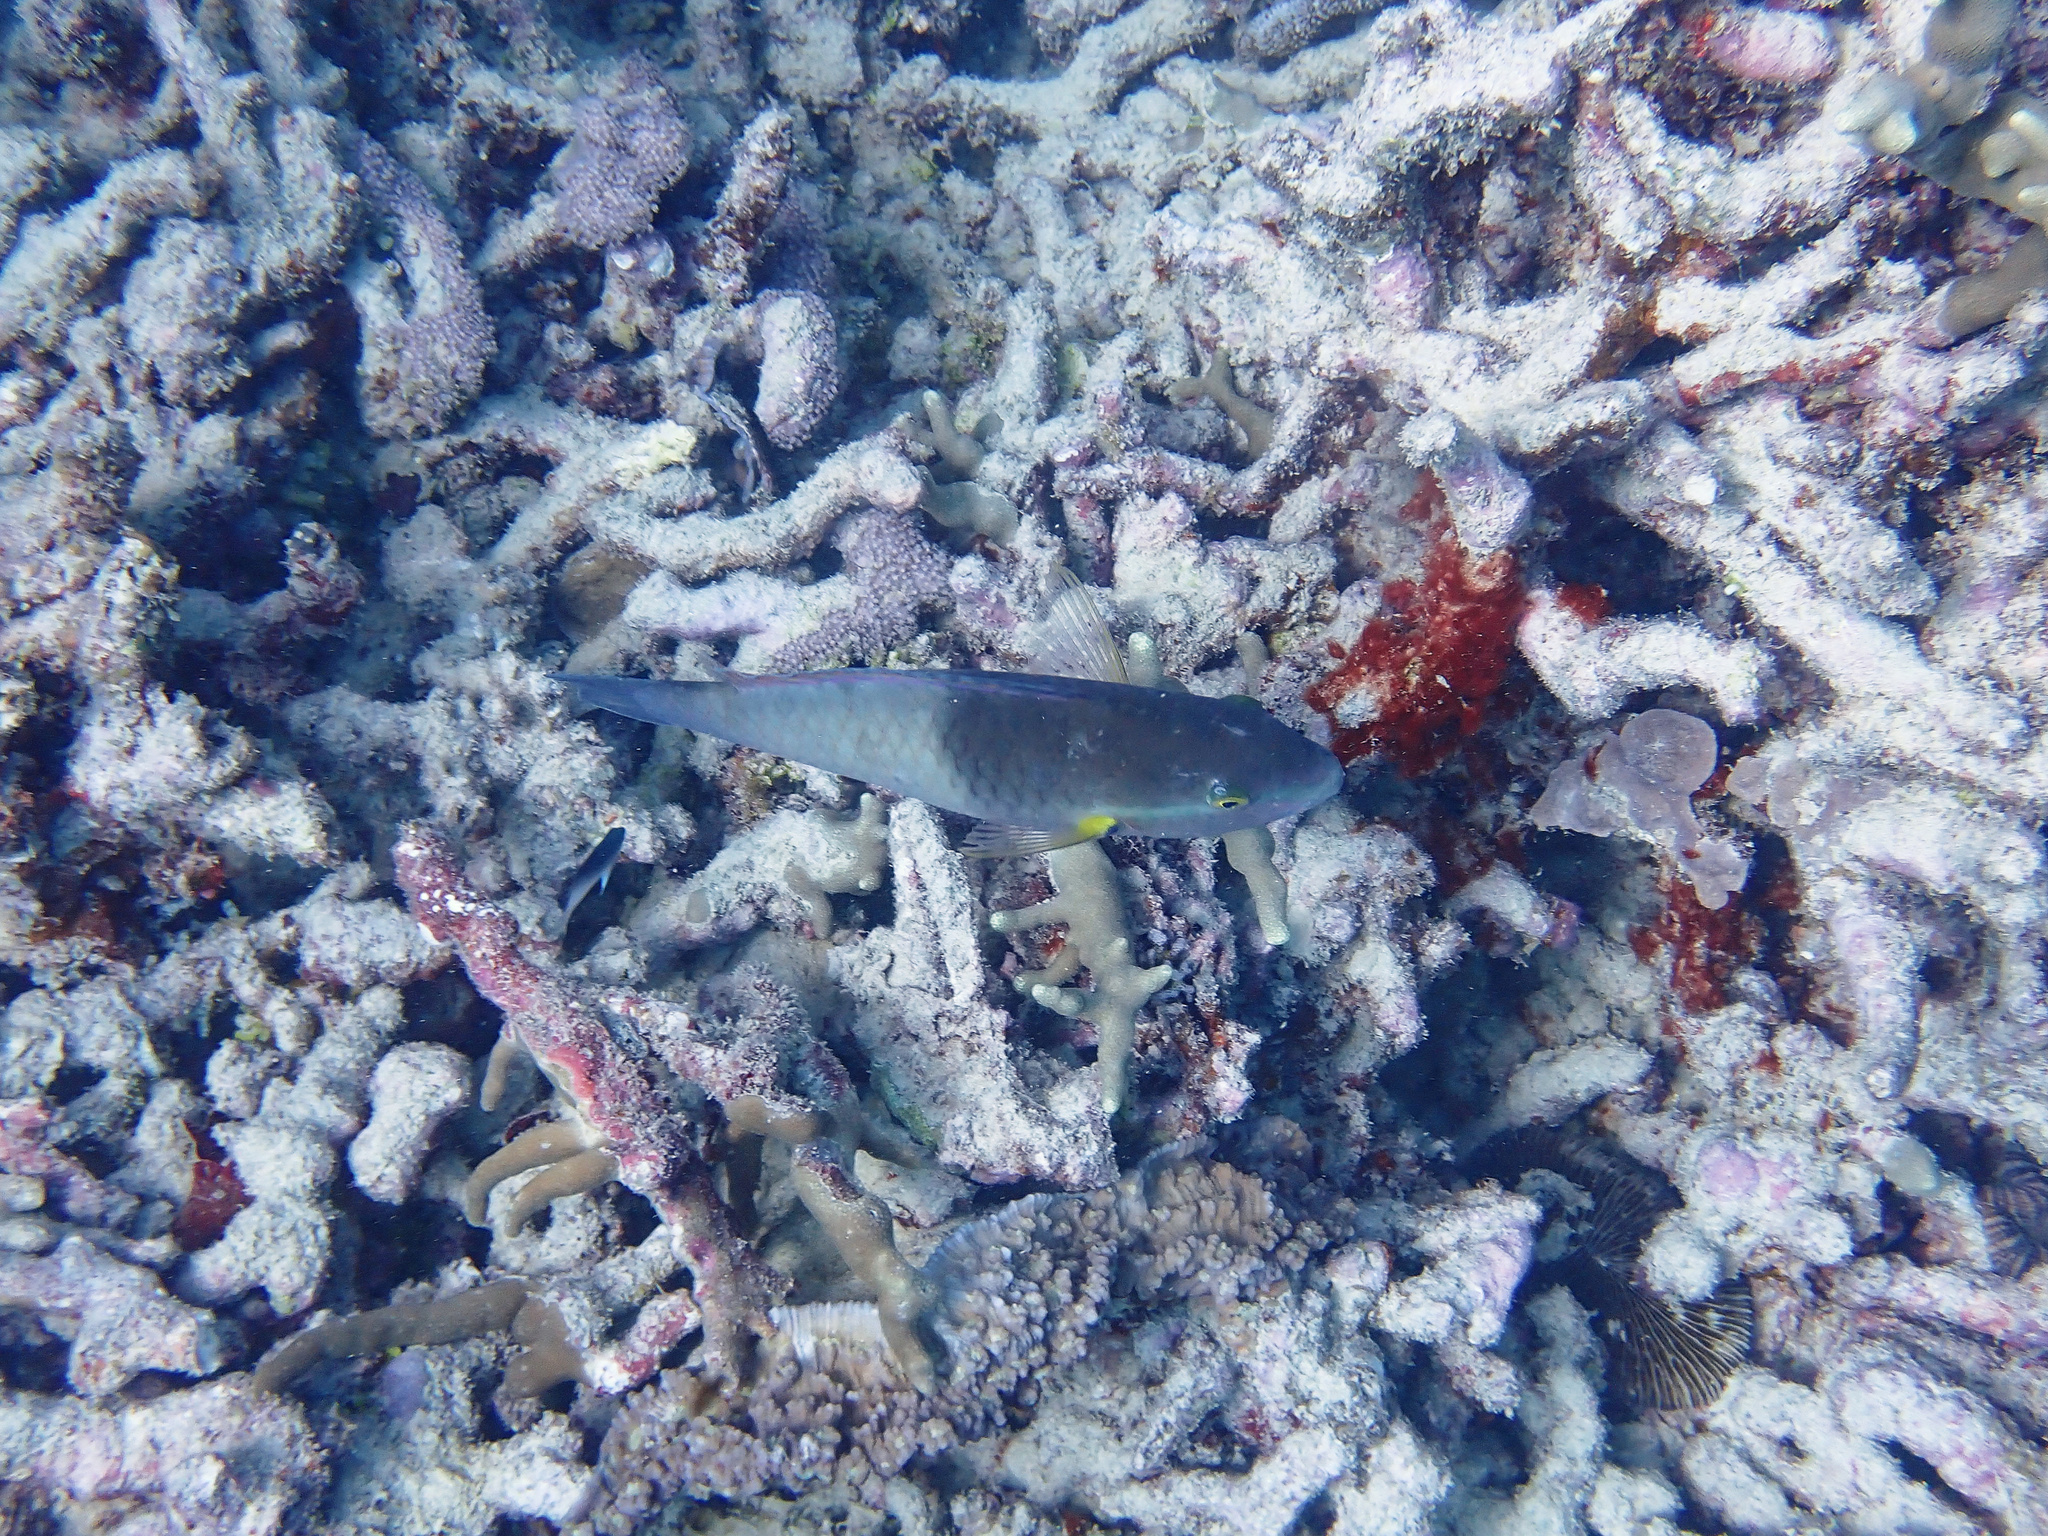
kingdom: Animalia
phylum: Chordata
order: Perciformes
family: Scaridae
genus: Scarus
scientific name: Scarus flavipectoralis
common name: Yellowfin parrotfish
